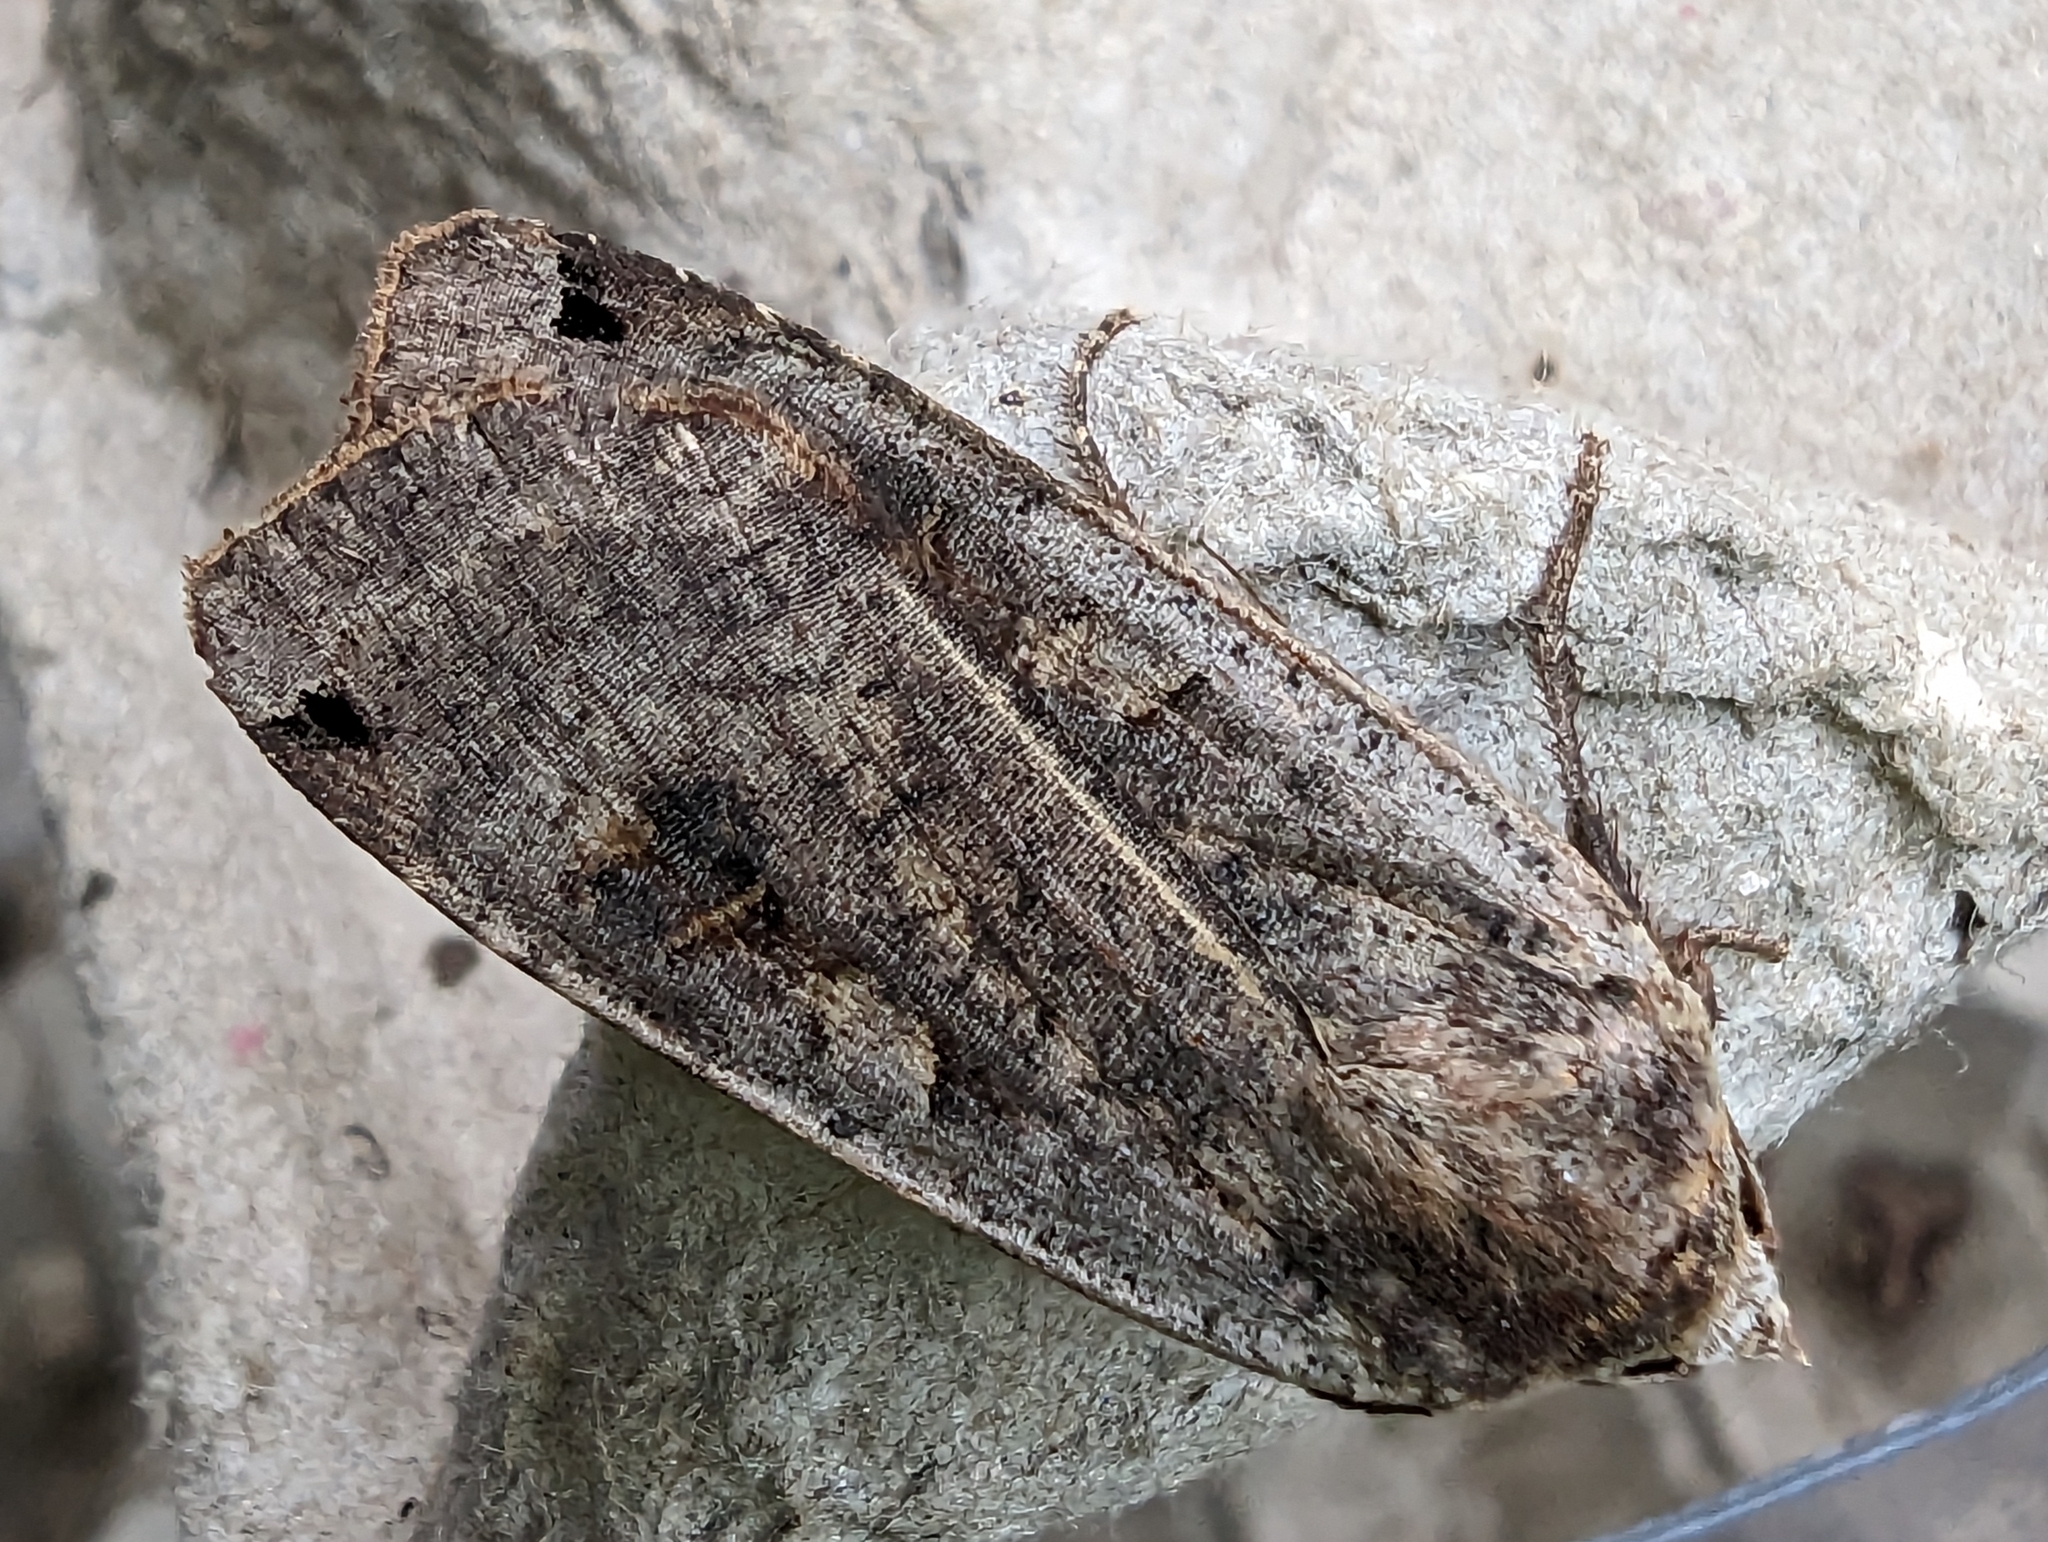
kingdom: Animalia
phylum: Arthropoda
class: Insecta
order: Lepidoptera
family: Noctuidae
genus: Noctua
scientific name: Noctua pronuba
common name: Large yellow underwing
